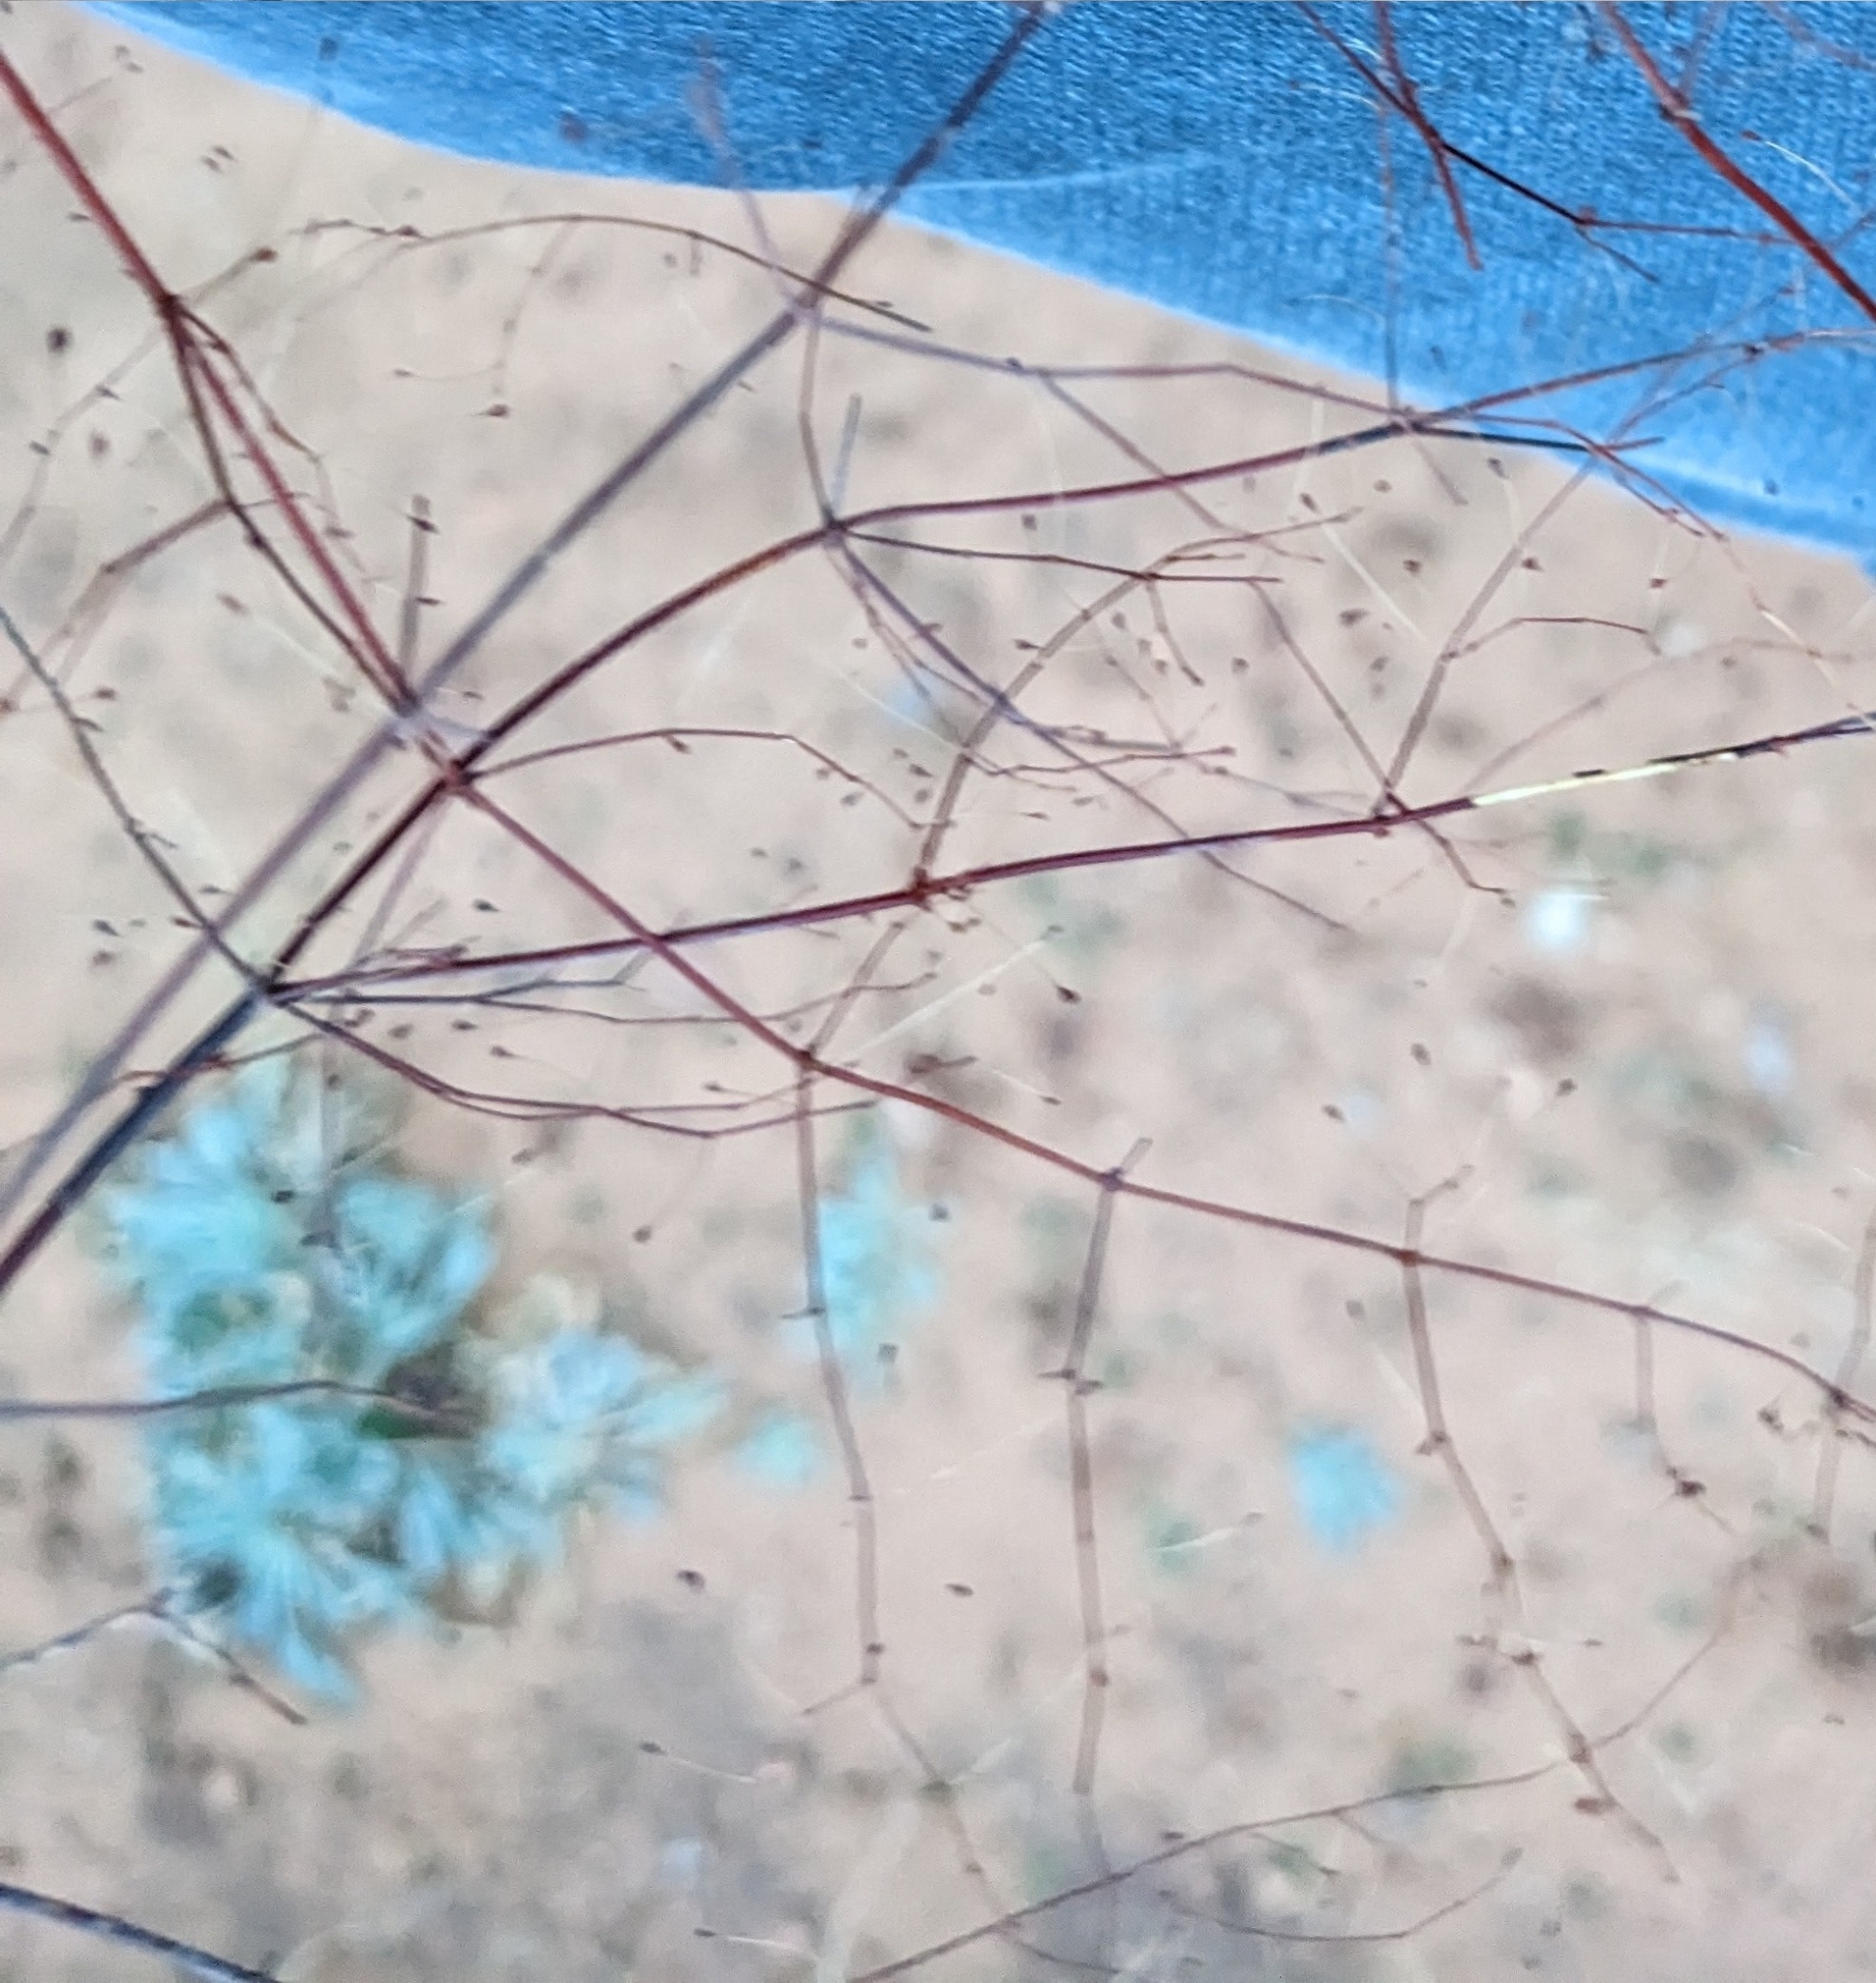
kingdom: Plantae
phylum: Tracheophyta
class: Magnoliopsida
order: Caryophyllales
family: Polygonaceae
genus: Eriogonum
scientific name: Eriogonum trichopes
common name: Little desert trumpet
